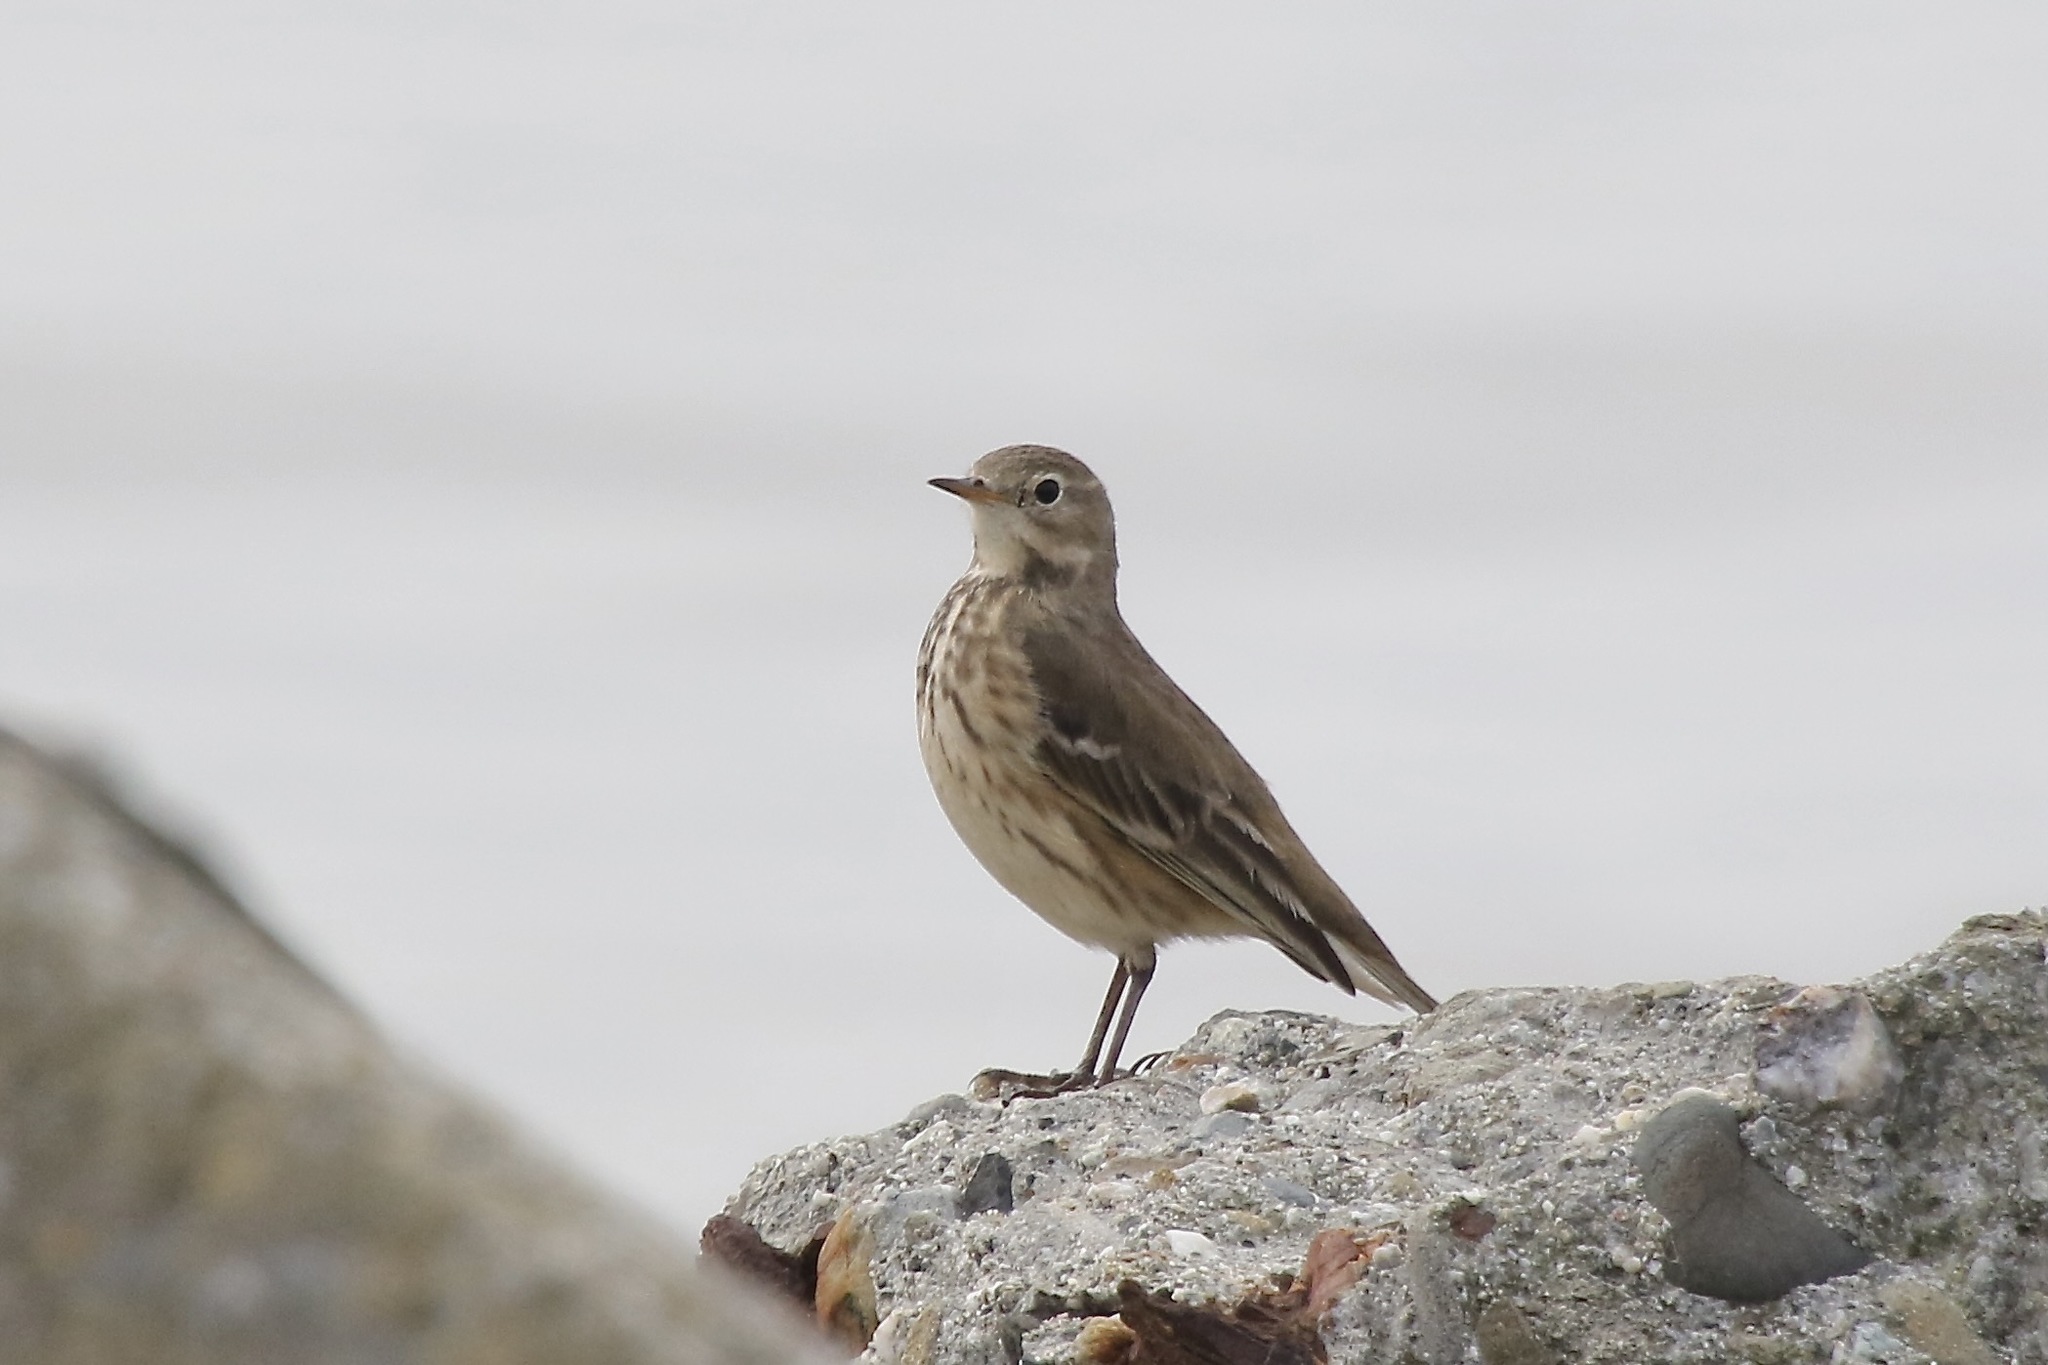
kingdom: Animalia
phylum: Chordata
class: Aves
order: Passeriformes
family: Motacillidae
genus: Anthus
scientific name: Anthus rubescens
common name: Buff-bellied pipit
